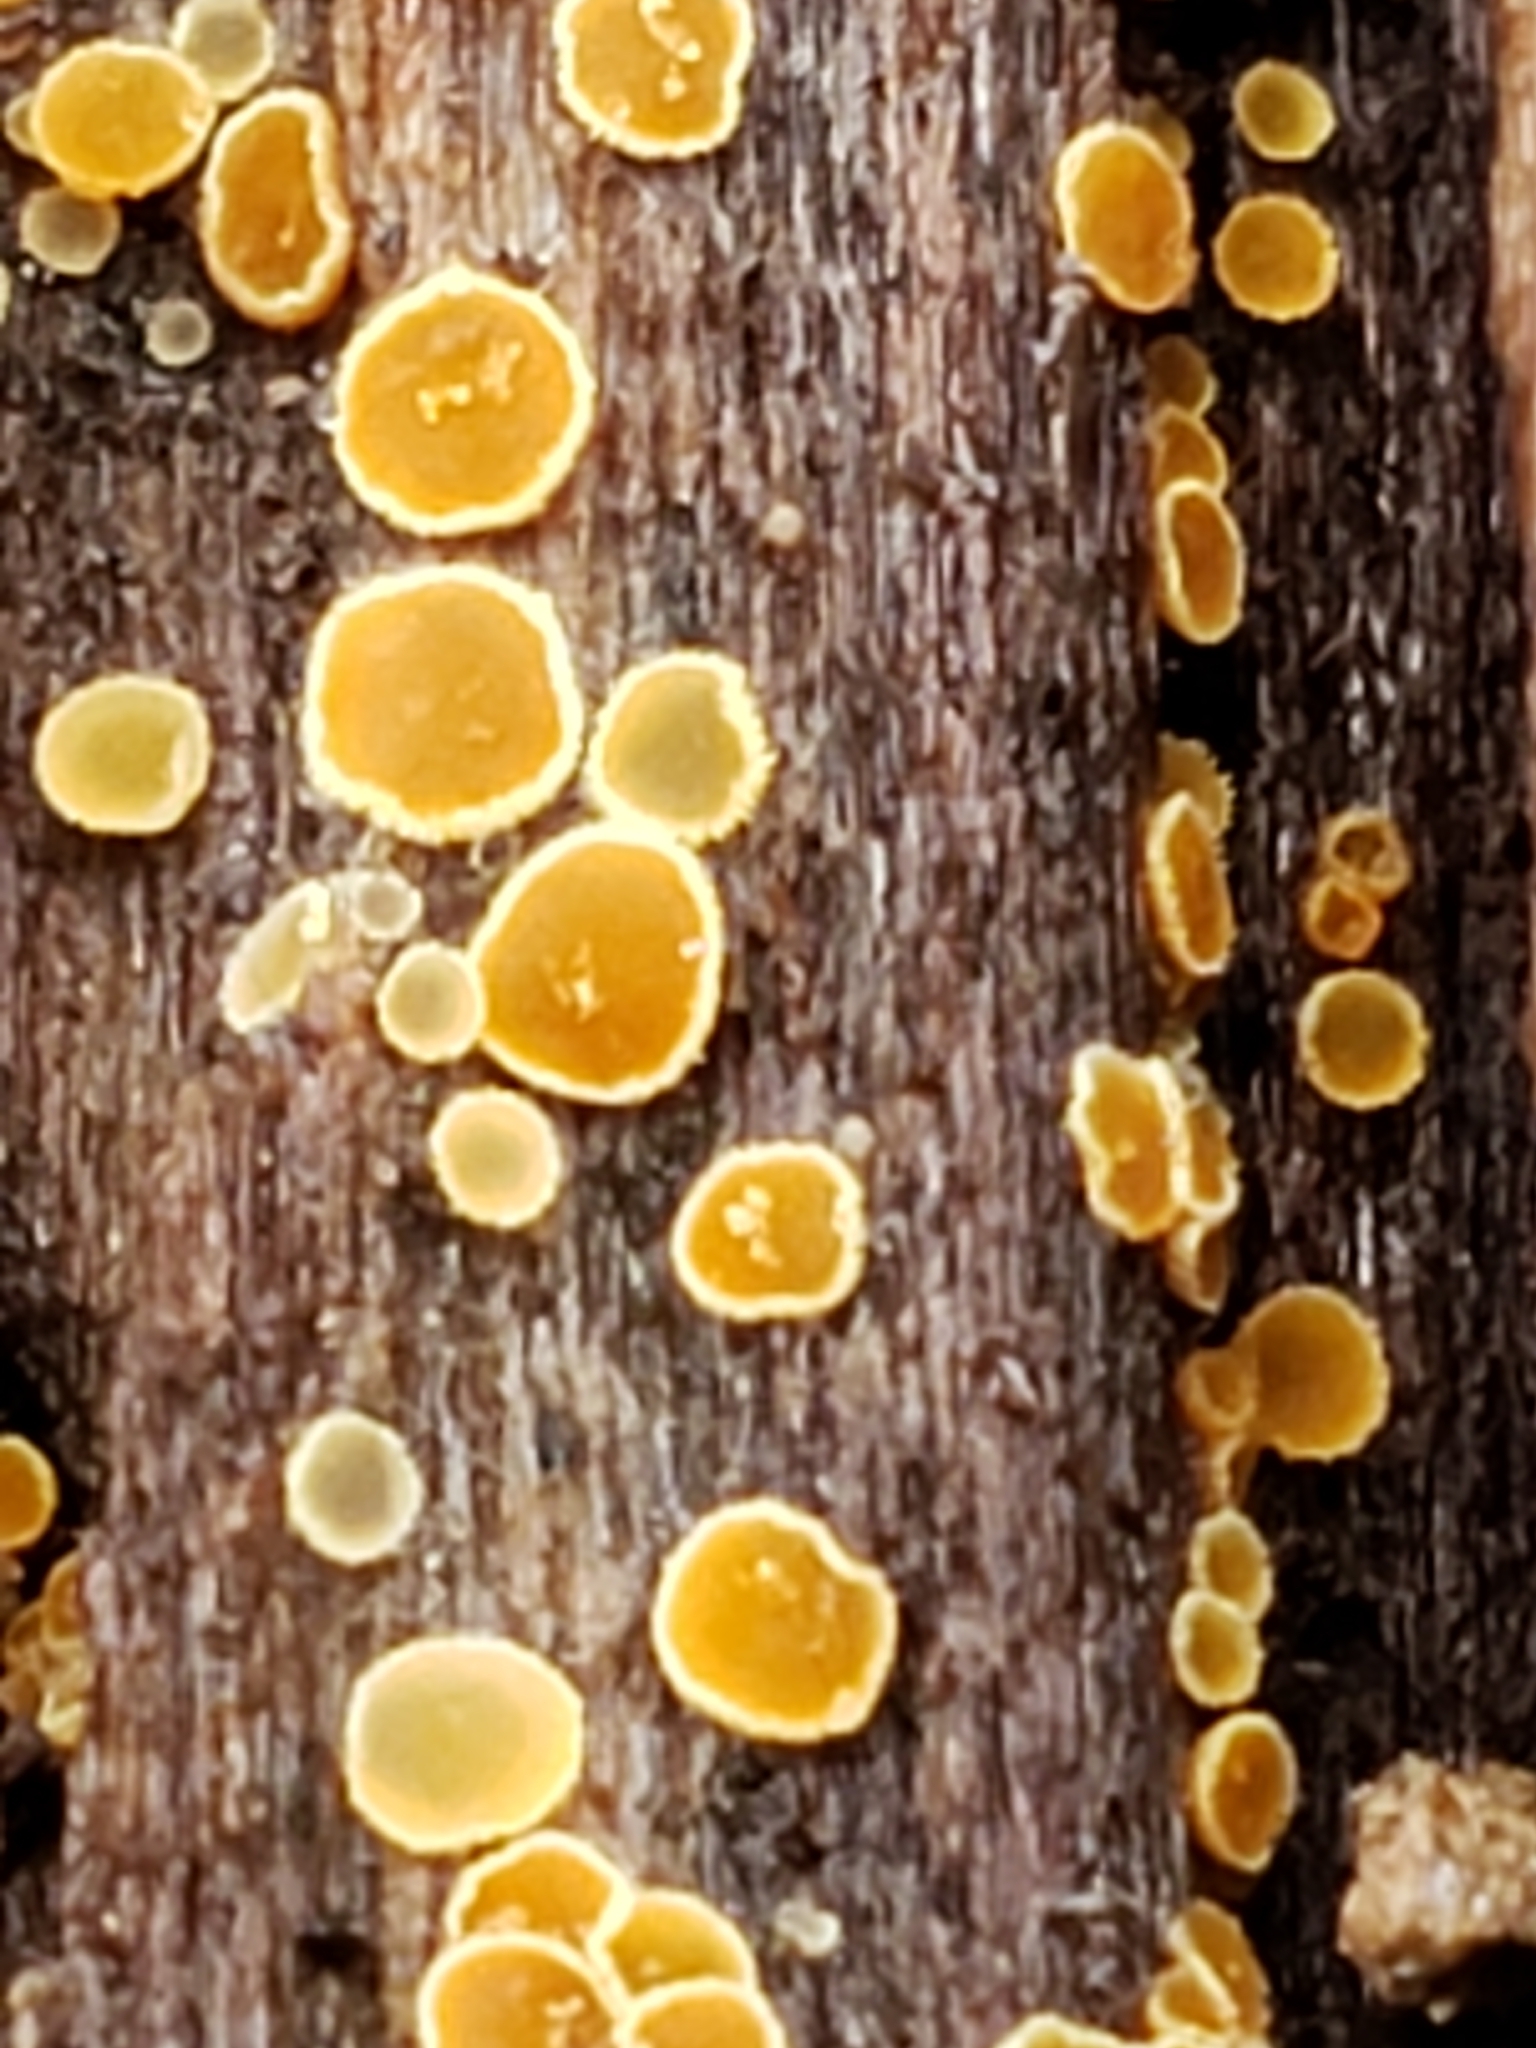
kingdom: Fungi
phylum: Ascomycota
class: Leotiomycetes
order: Helotiales
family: Arachnopezizaceae
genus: Arachnopeziza
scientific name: Arachnopeziza trabinelloides
